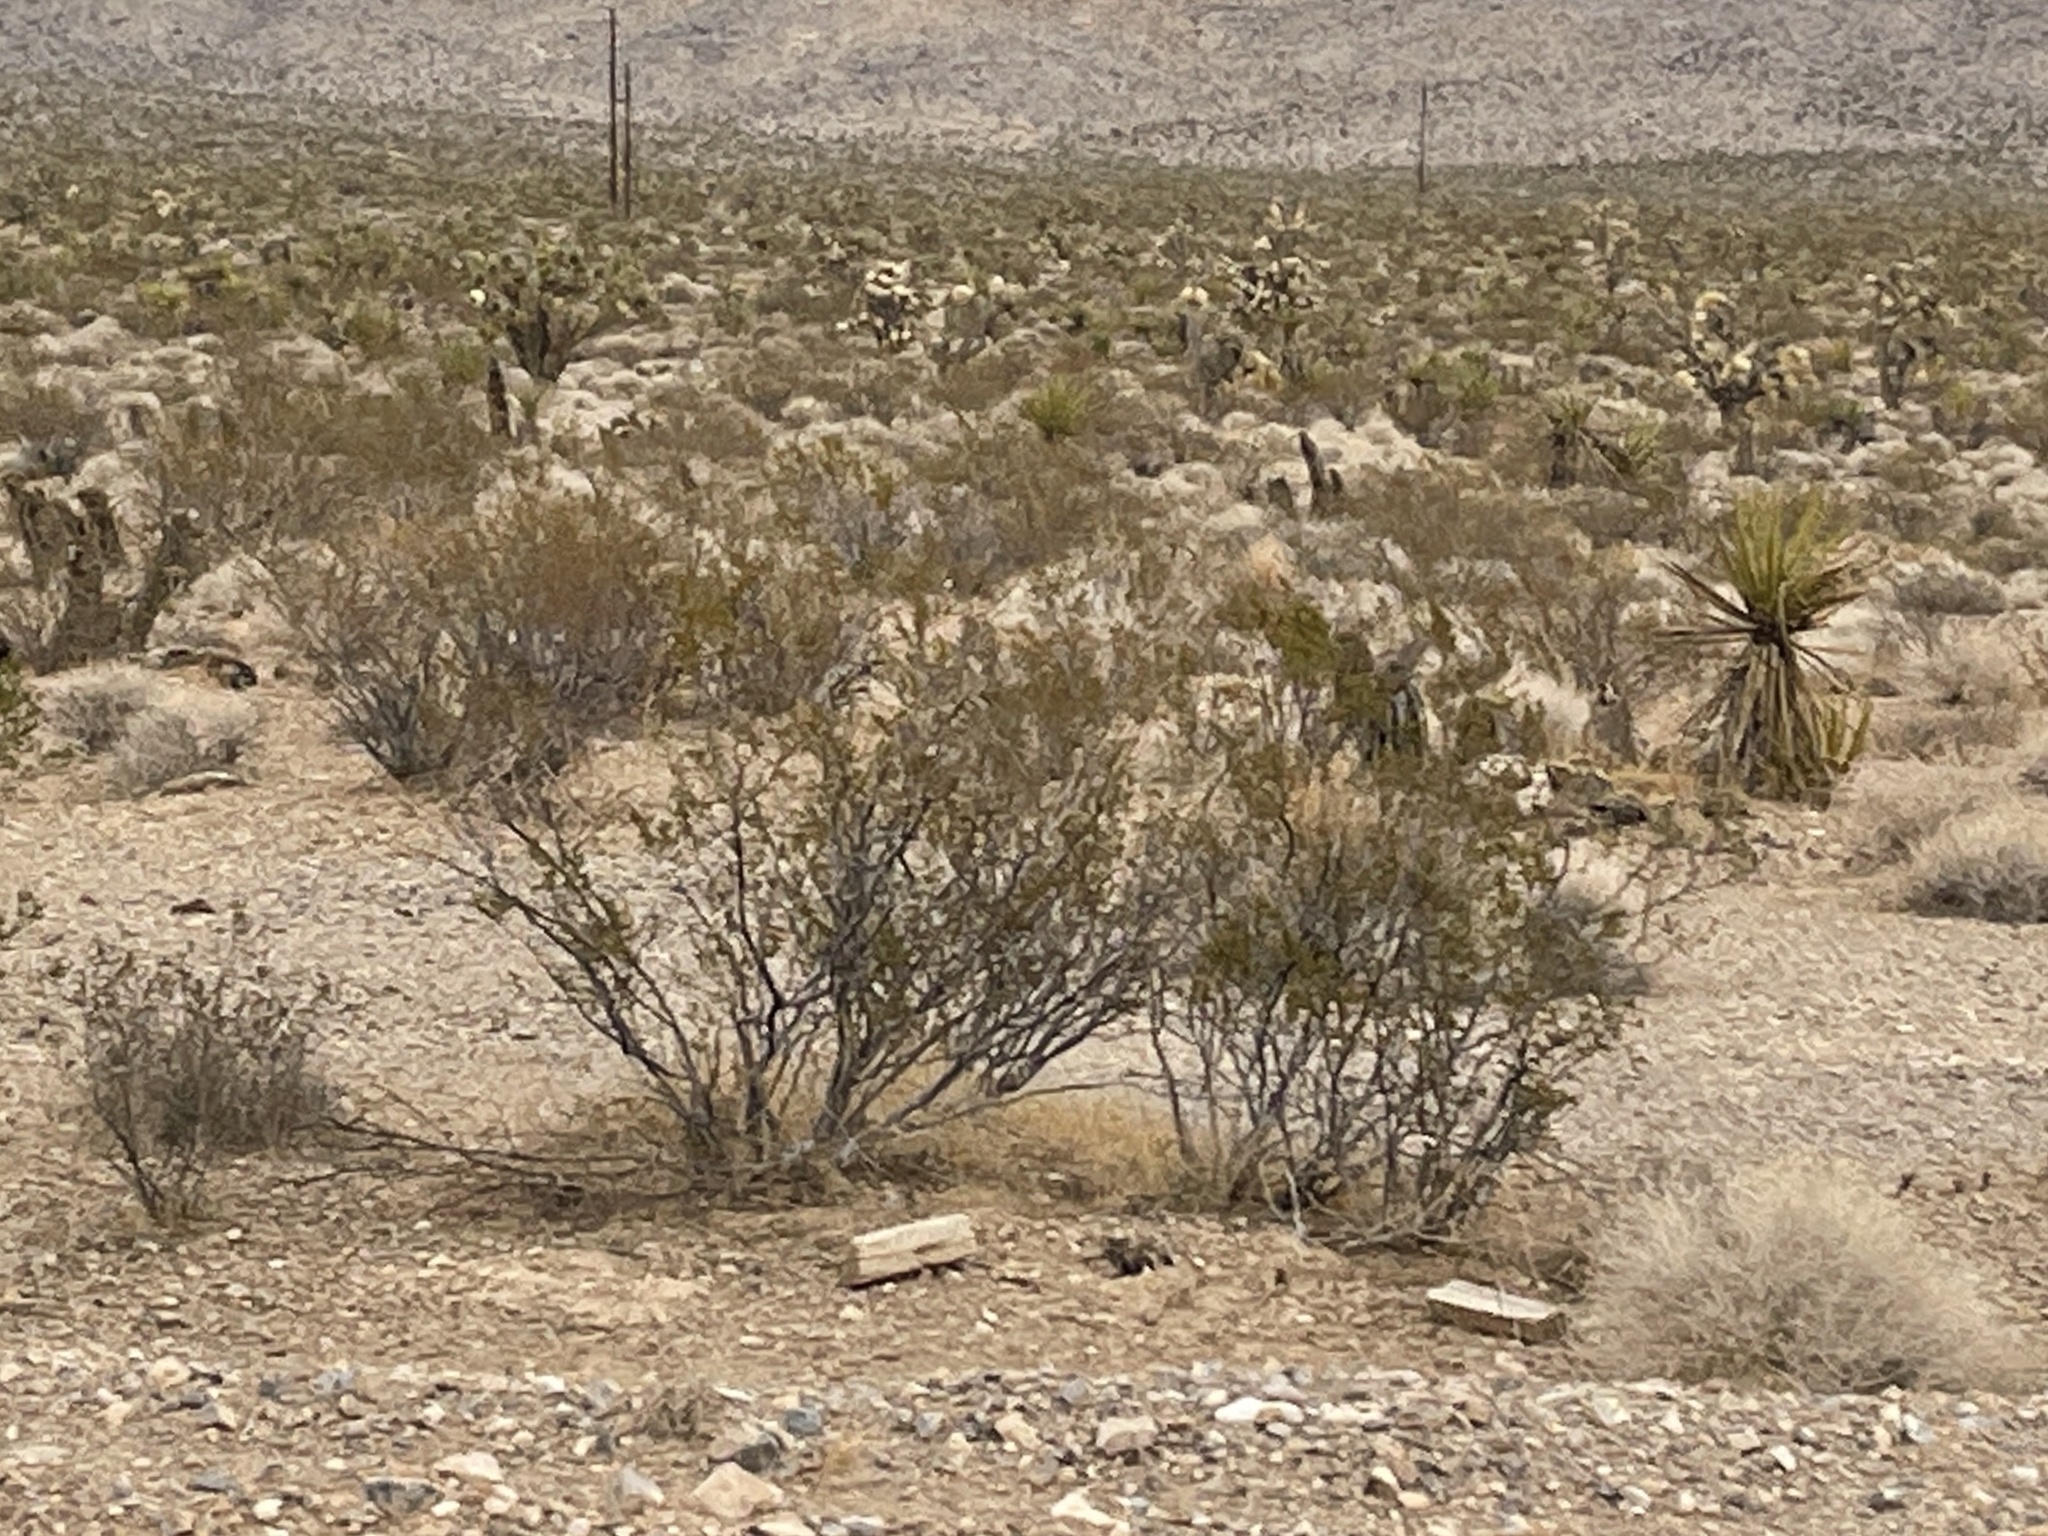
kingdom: Plantae
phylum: Tracheophyta
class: Magnoliopsida
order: Zygophyllales
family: Zygophyllaceae
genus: Larrea
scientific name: Larrea tridentata
